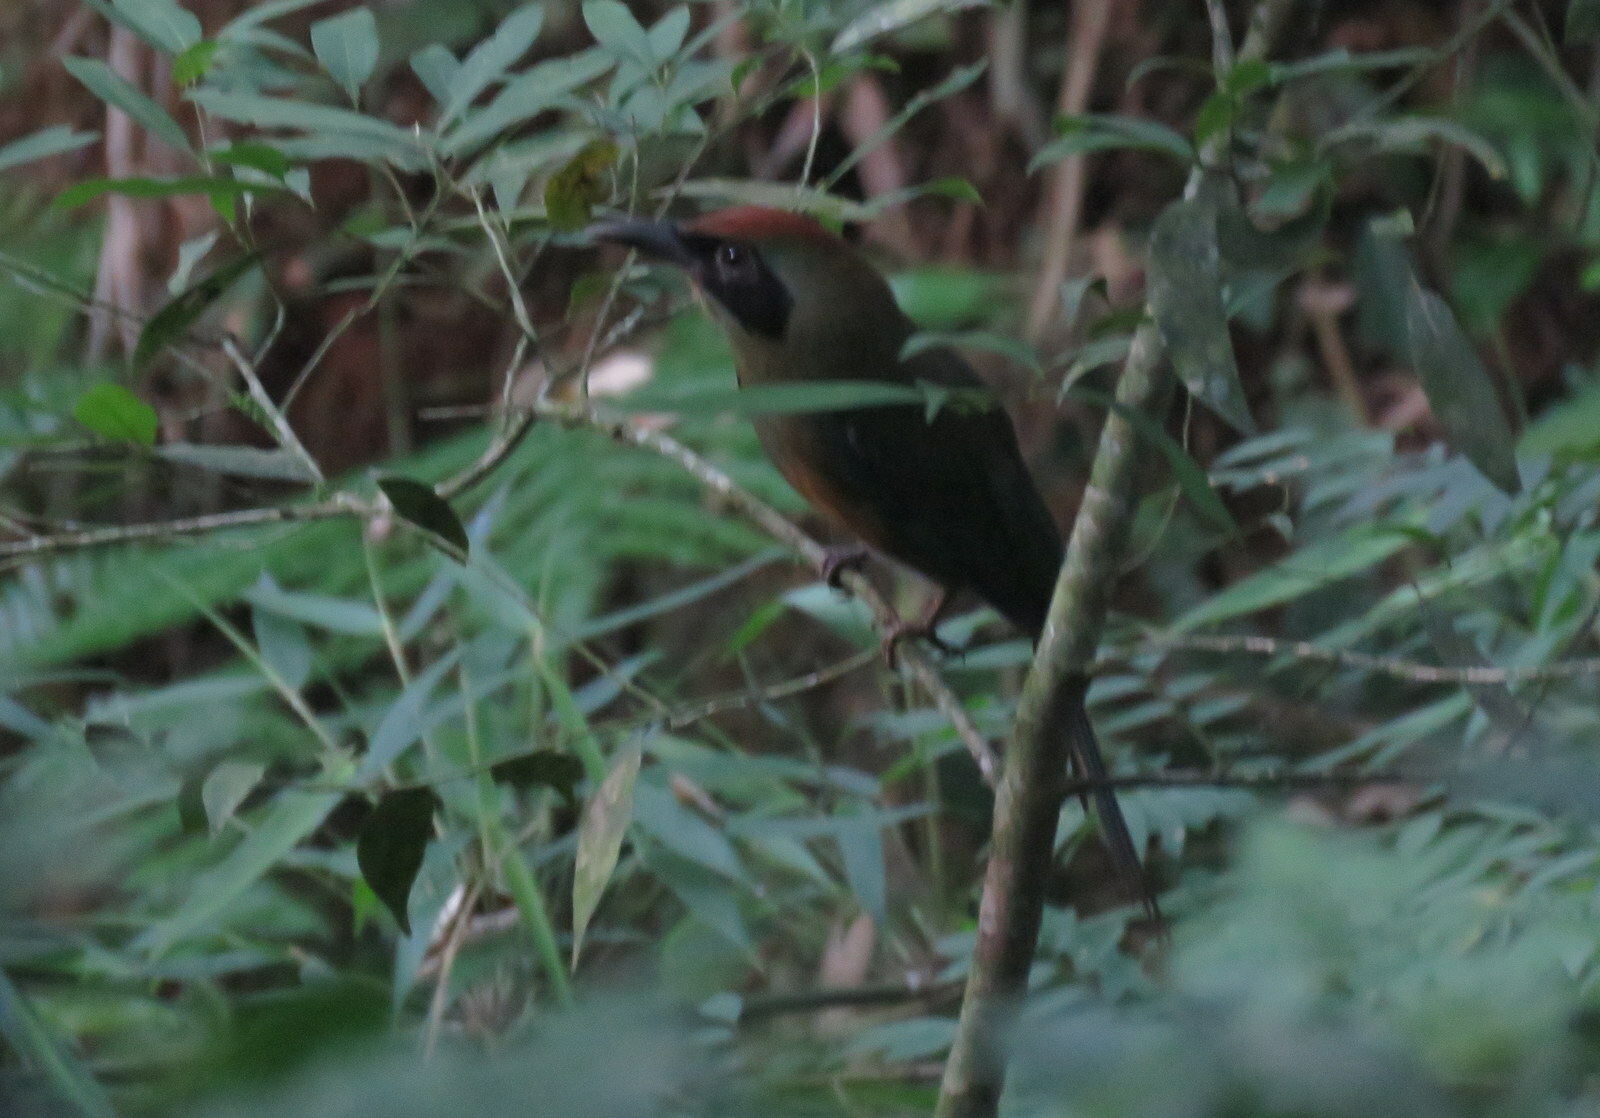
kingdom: Animalia
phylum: Chordata
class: Aves
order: Coraciiformes
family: Momotidae
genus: Baryphthengus
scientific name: Baryphthengus ruficapillus
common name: Rufous-capped motmot
